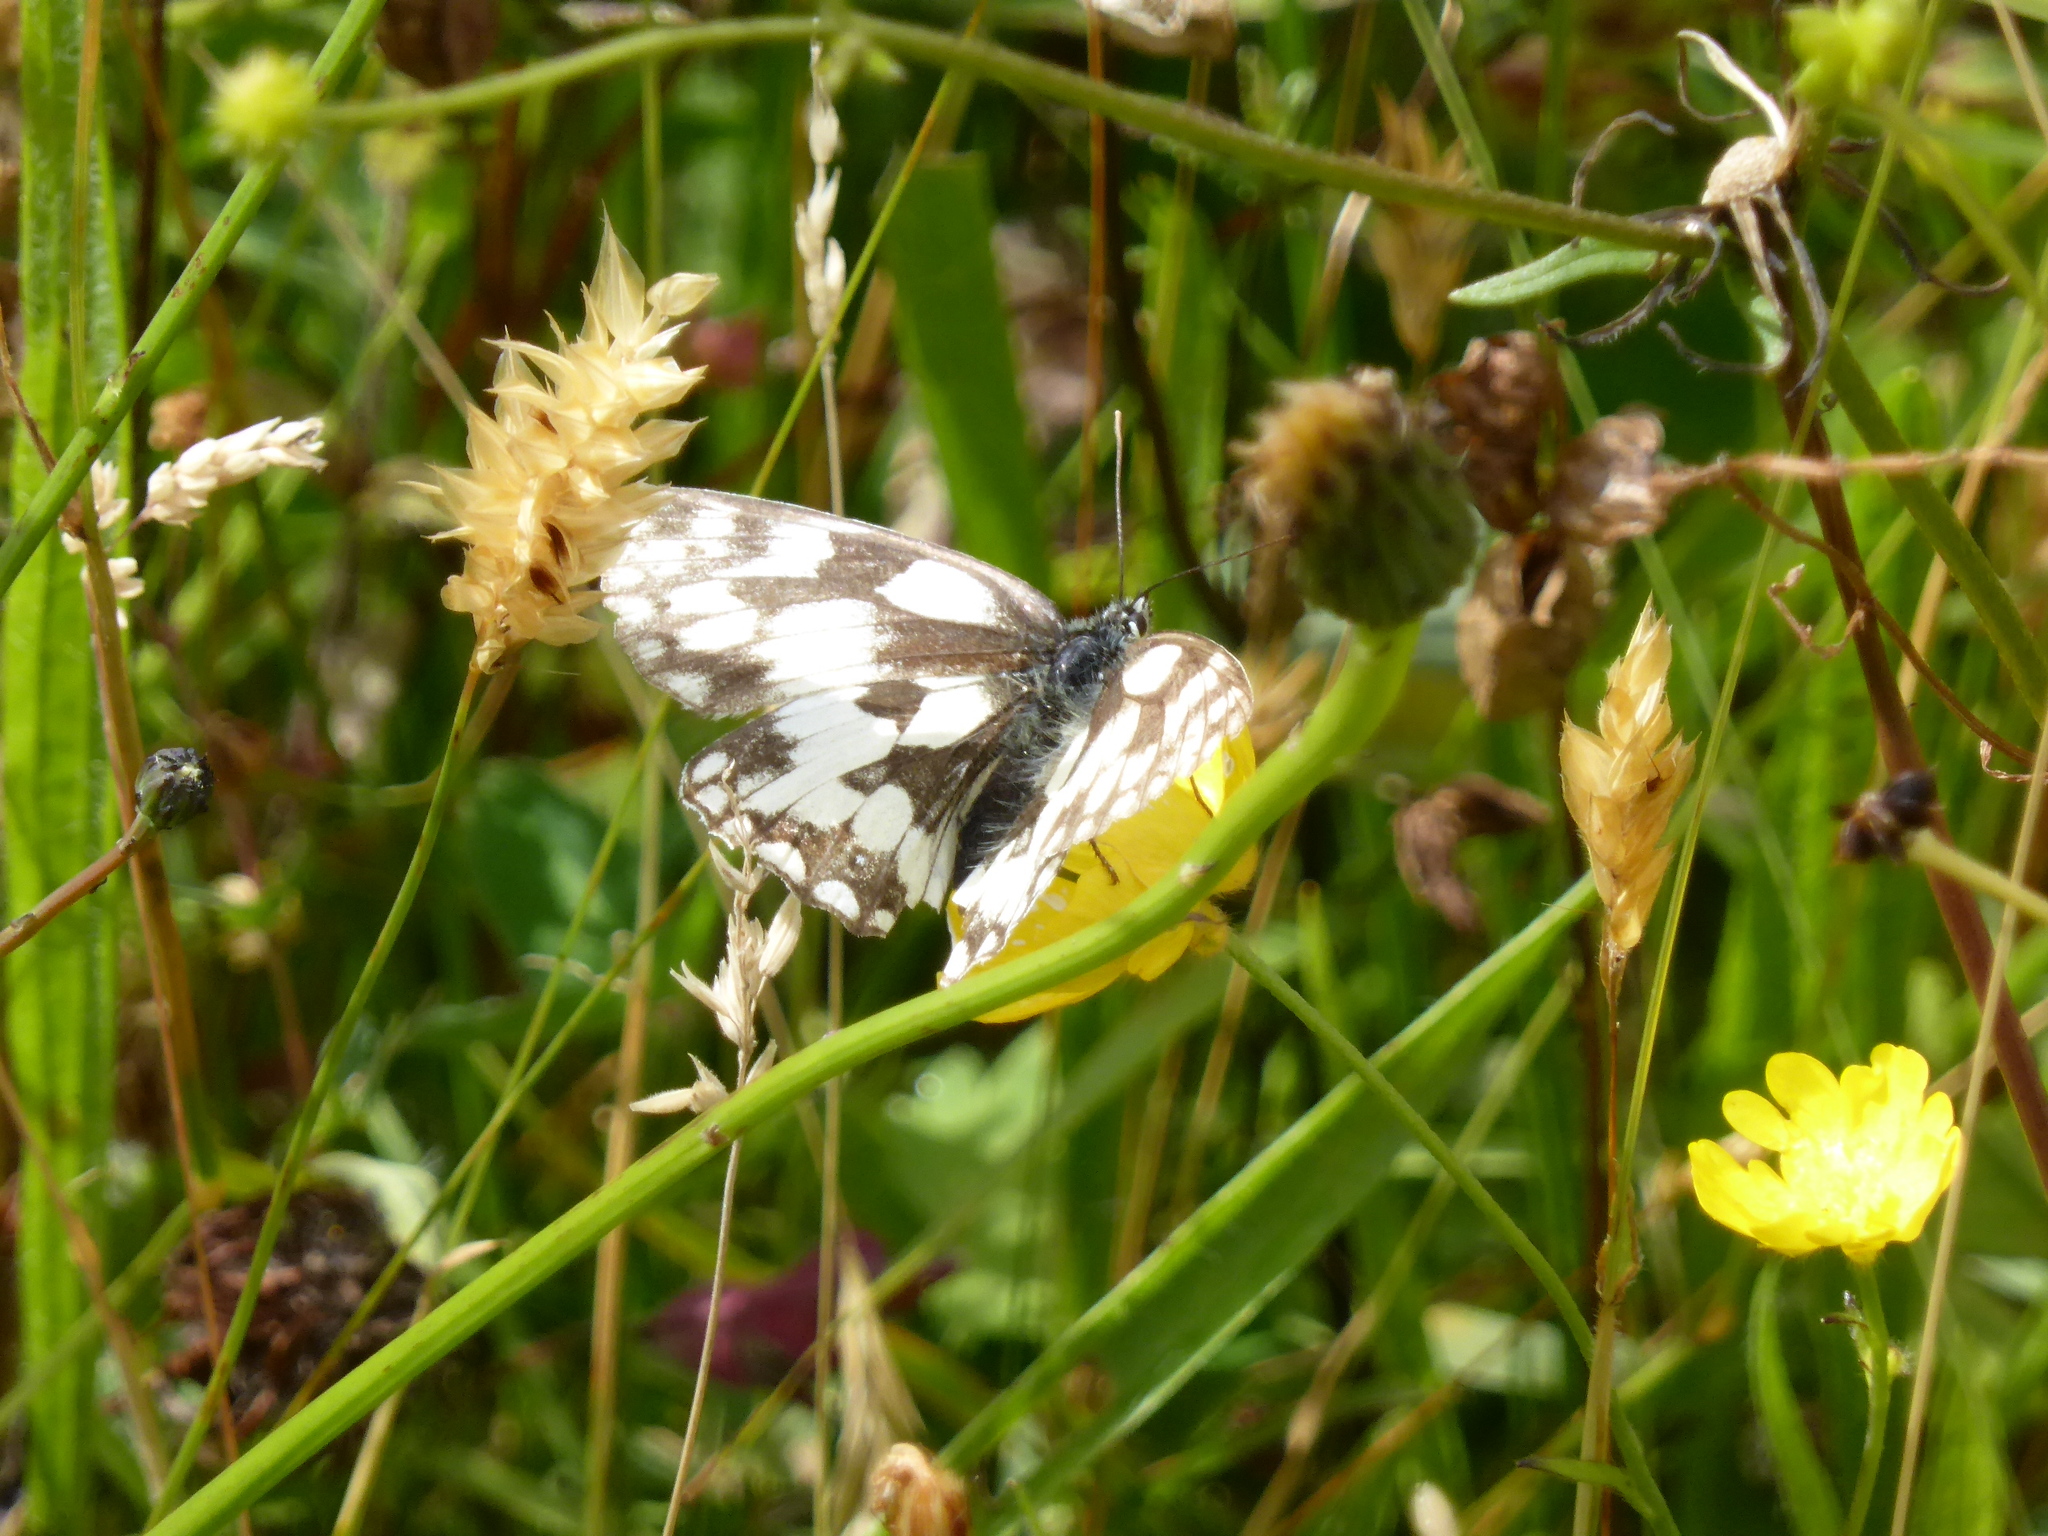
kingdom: Animalia
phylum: Arthropoda
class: Insecta
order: Lepidoptera
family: Nymphalidae
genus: Melanargia
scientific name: Melanargia galathea
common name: Marbled white
